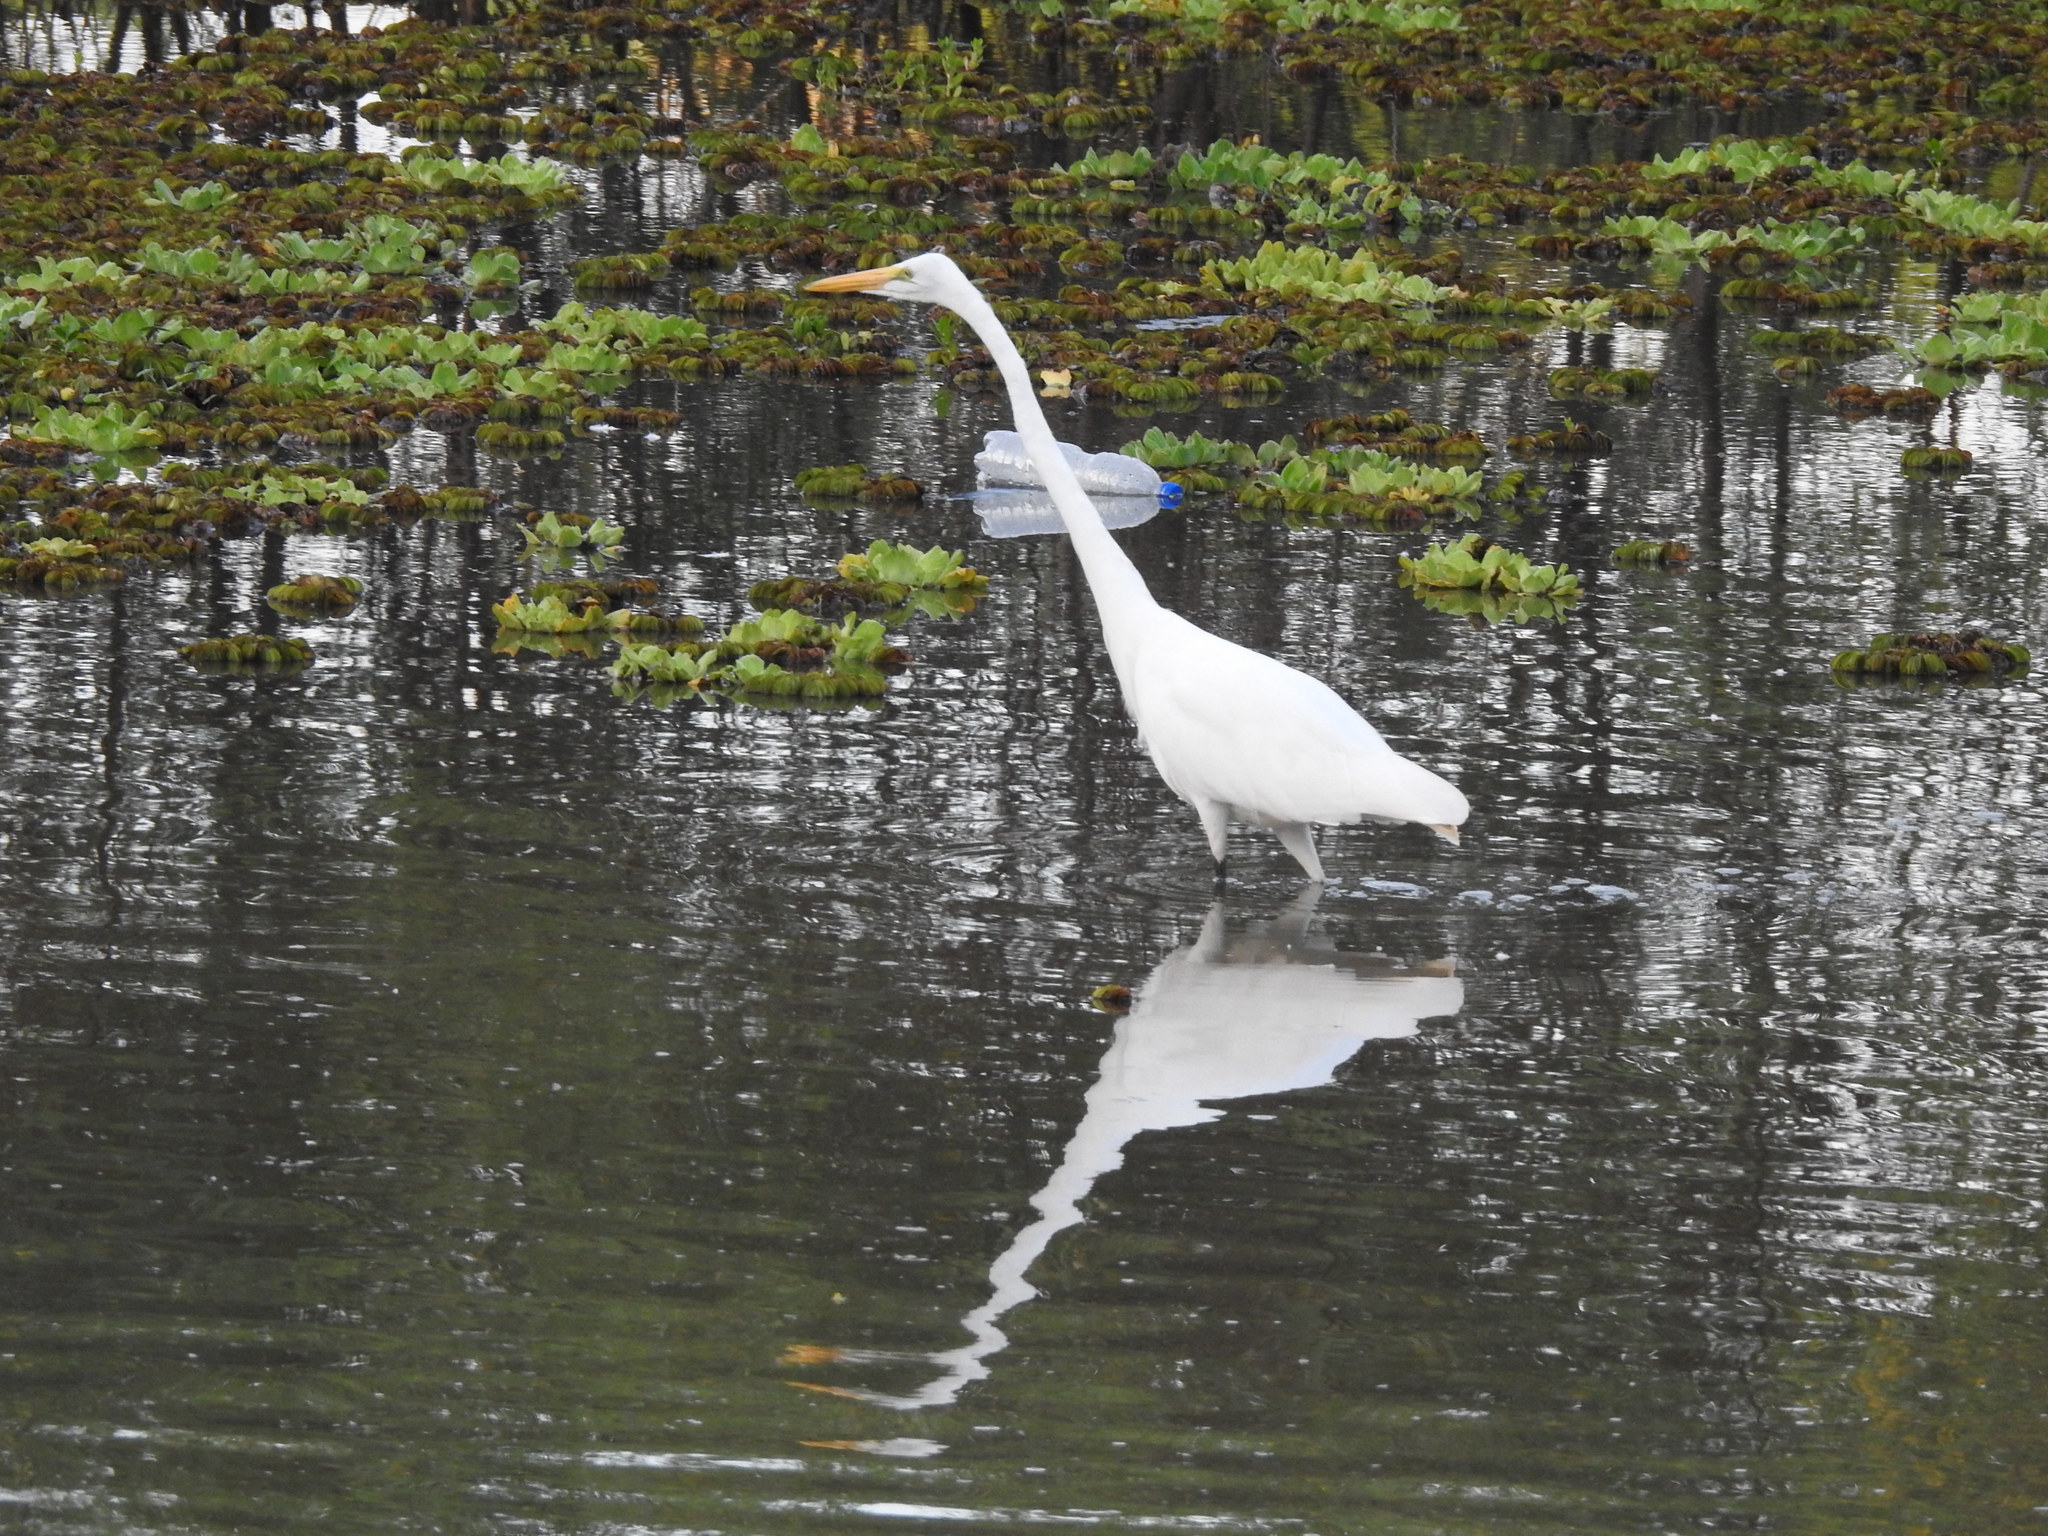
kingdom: Animalia
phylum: Chordata
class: Aves
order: Pelecaniformes
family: Ardeidae
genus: Ardea
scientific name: Ardea alba
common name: Great egret
